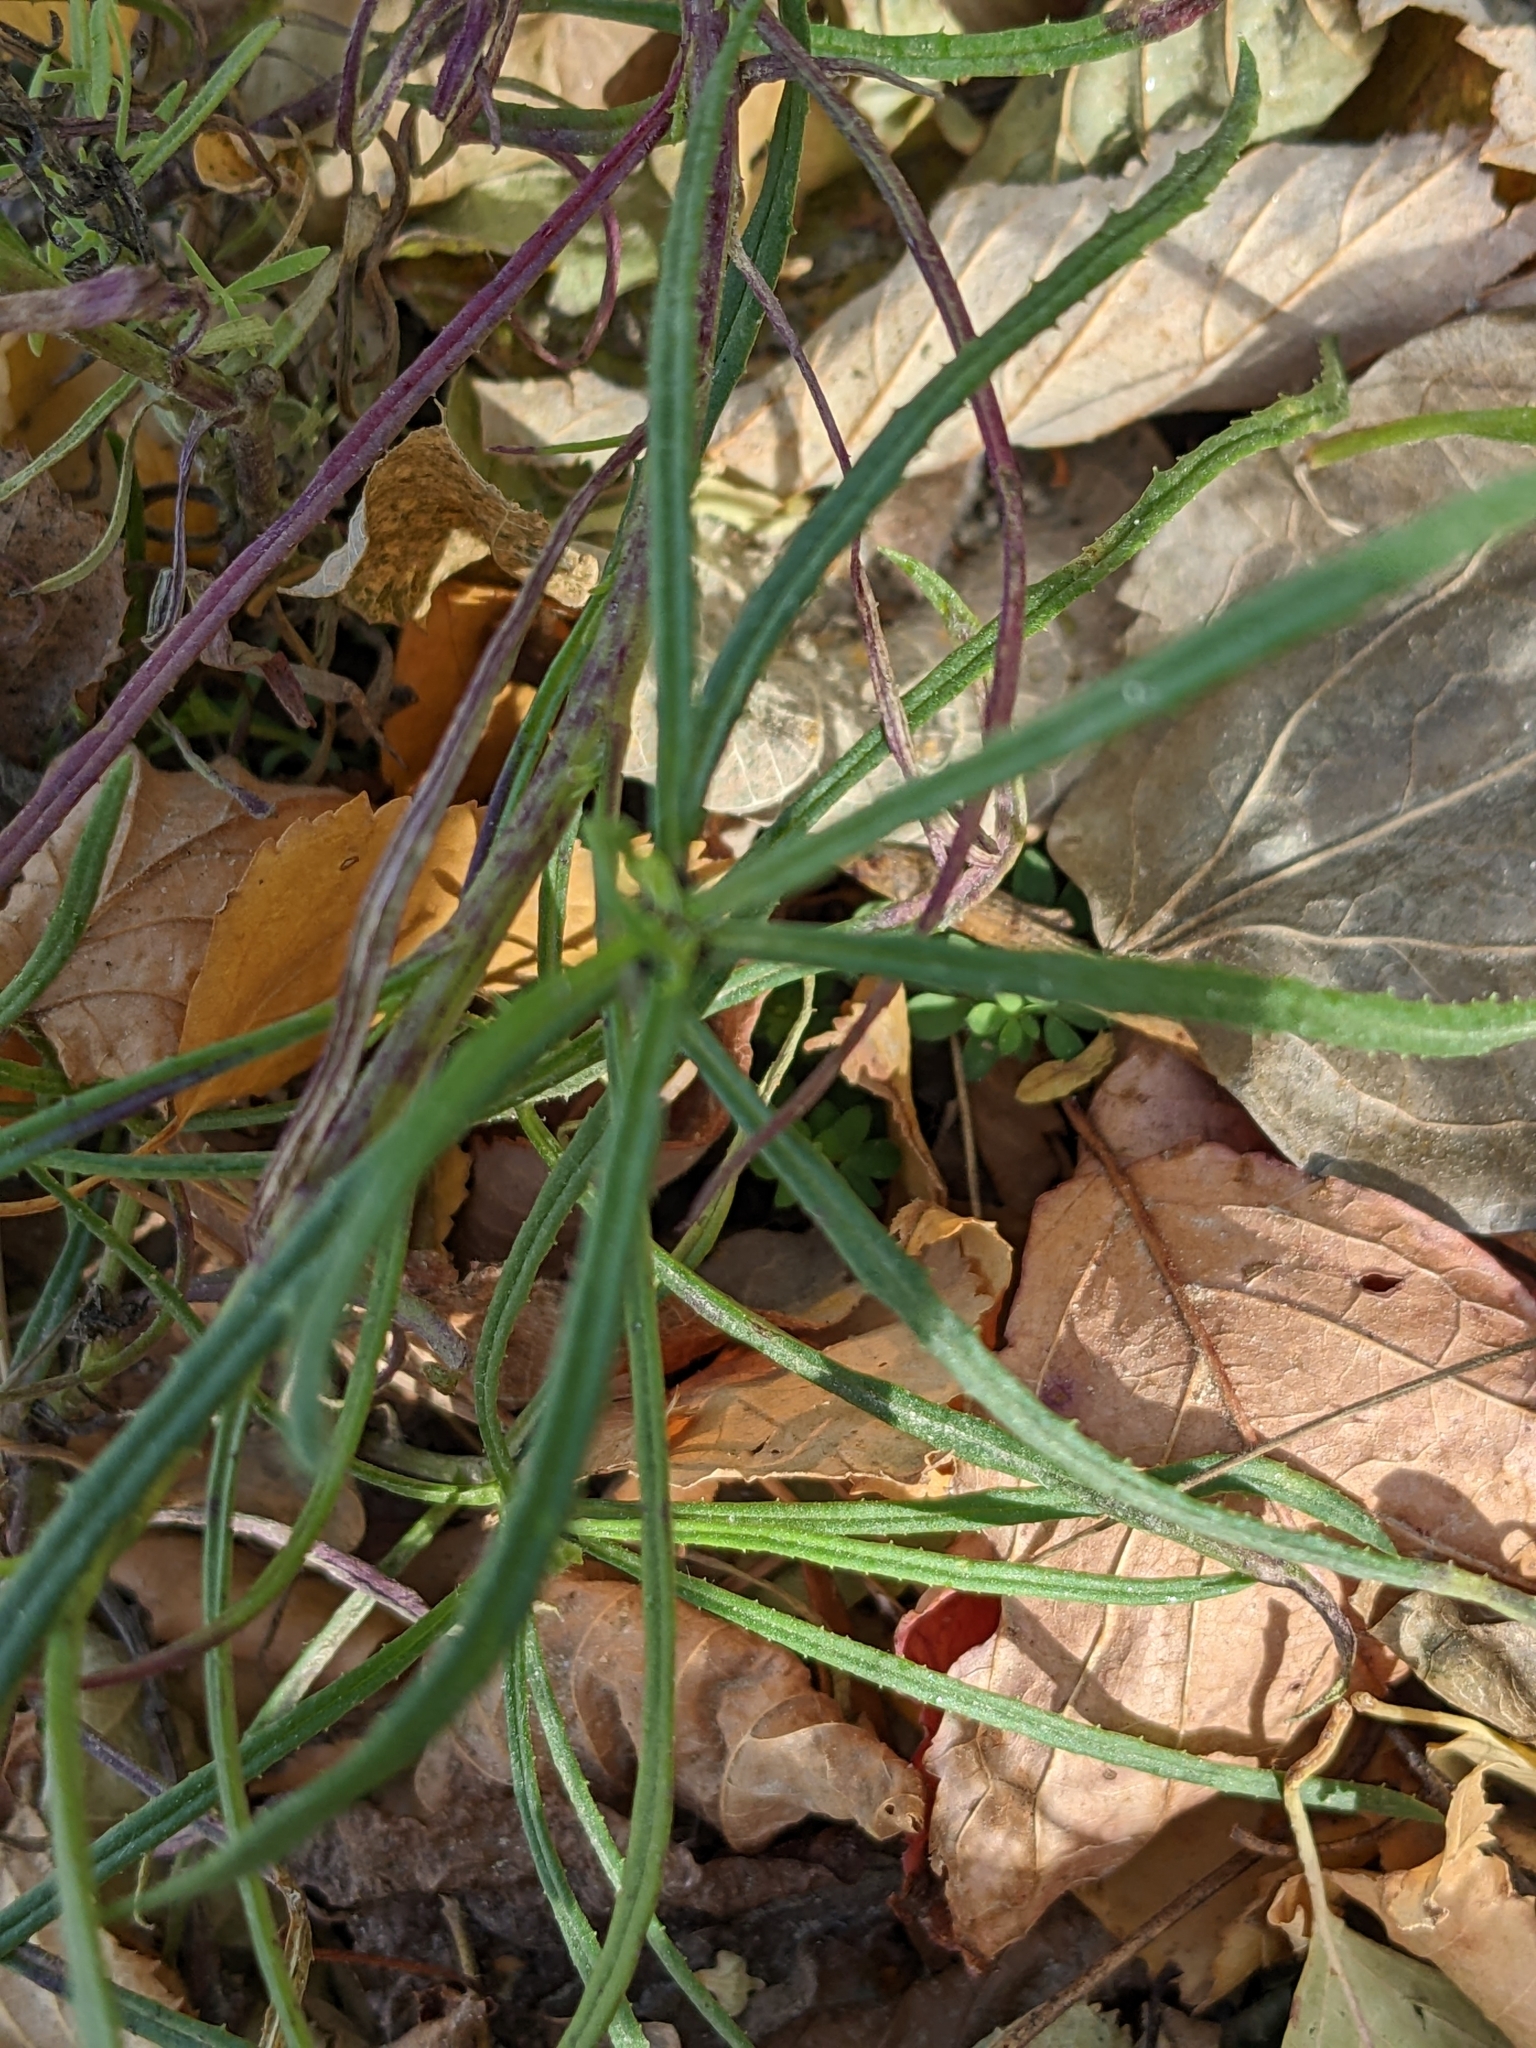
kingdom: Plantae
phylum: Tracheophyta
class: Magnoliopsida
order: Asterales
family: Asteraceae
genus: Senecio
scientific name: Senecio inaequidens
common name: Narrow-leaved ragwort
